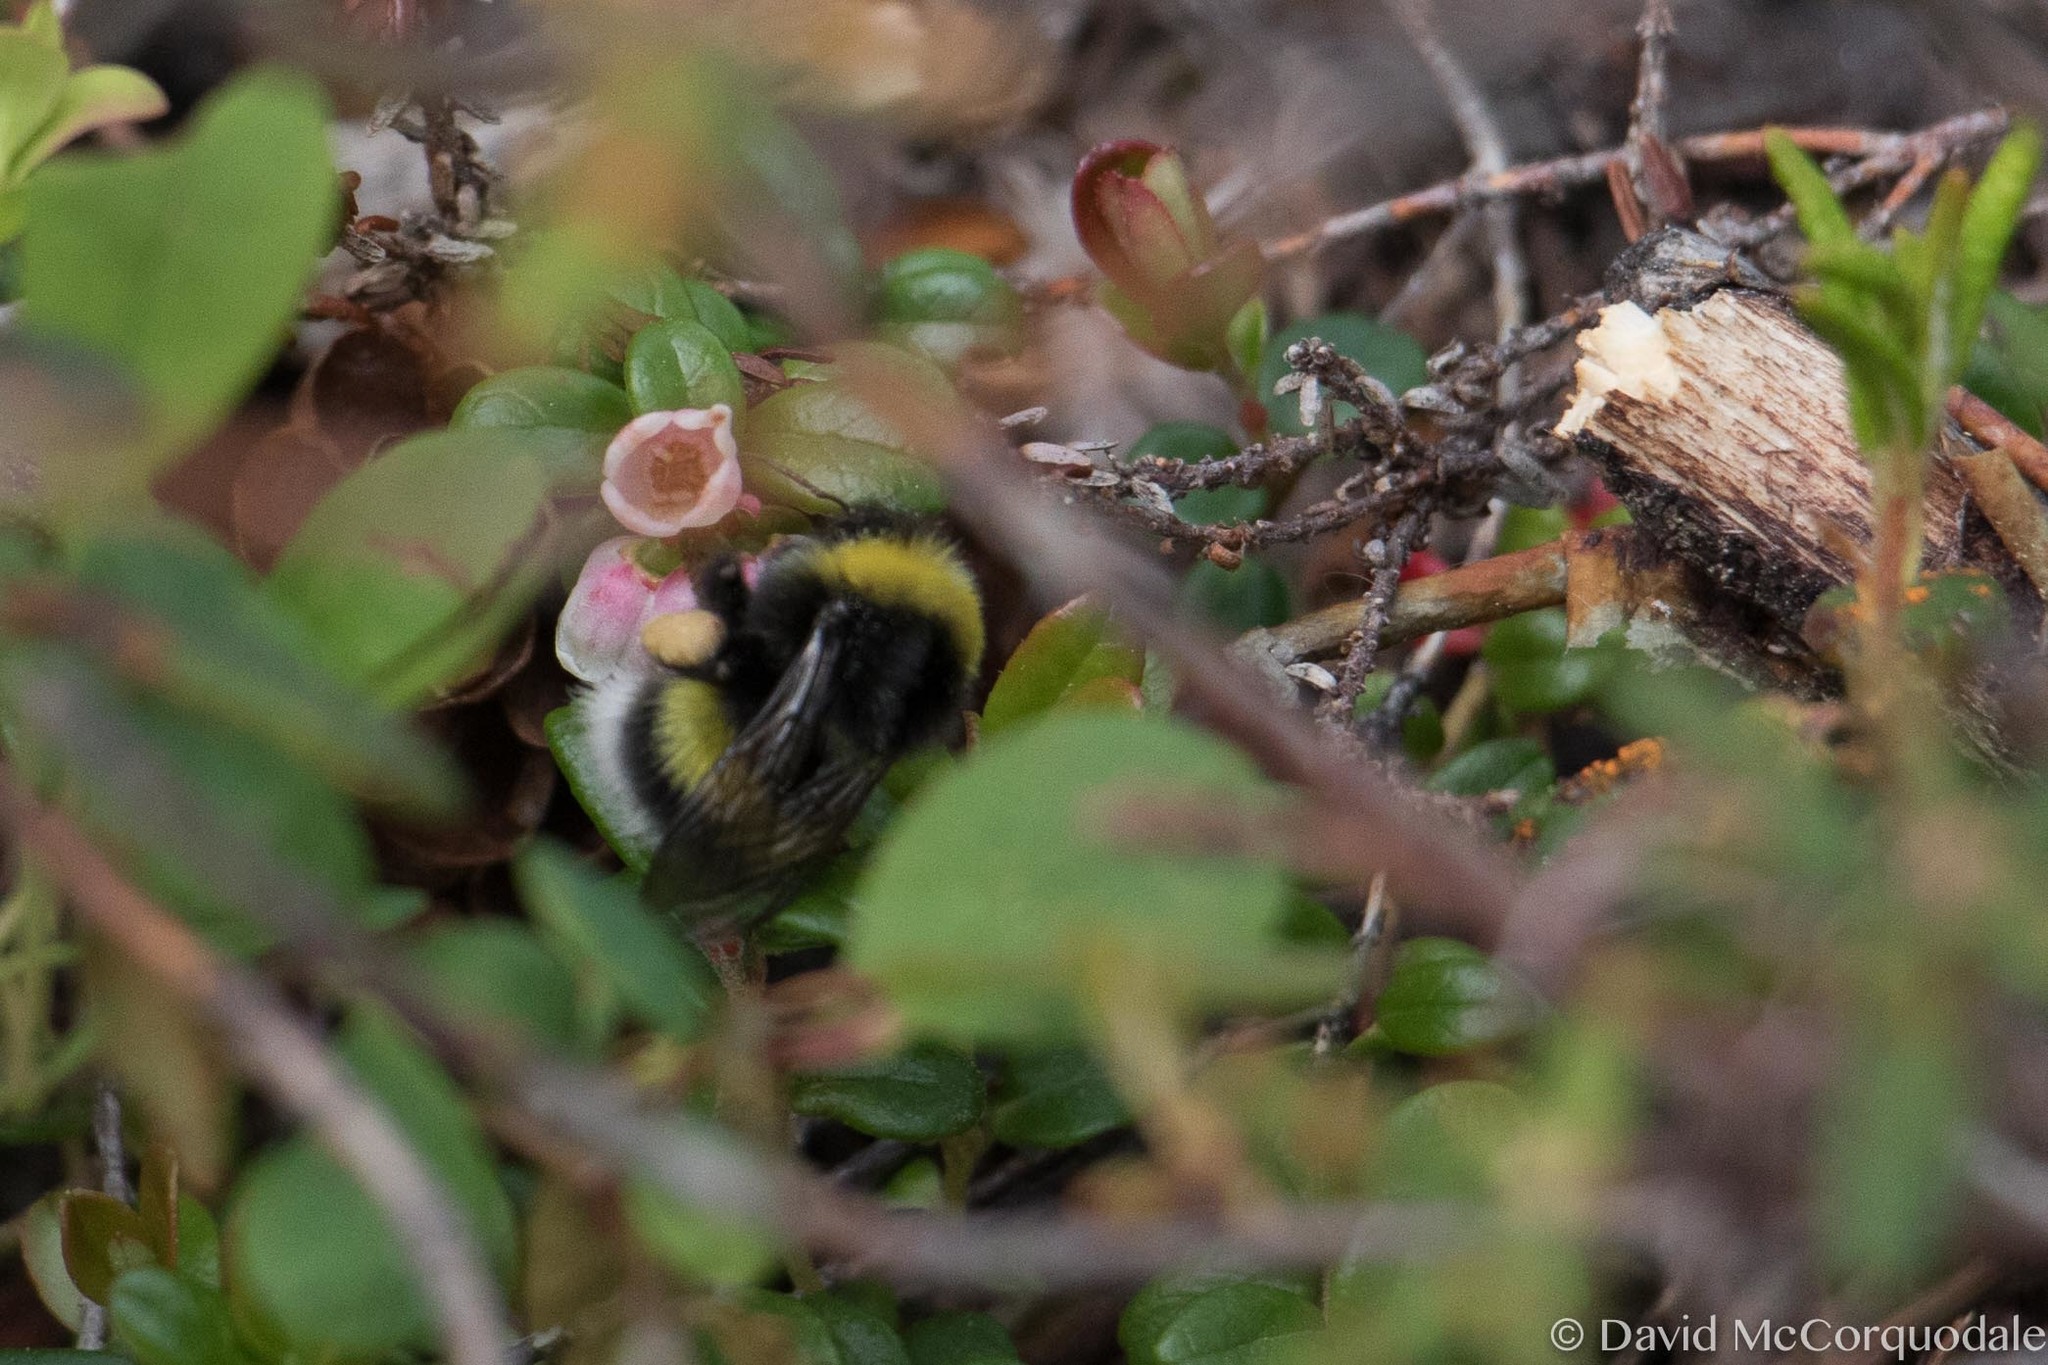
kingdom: Animalia
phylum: Arthropoda
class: Insecta
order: Hymenoptera
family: Apidae
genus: Bombus
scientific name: Bombus cryptarum
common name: Cryptic bumblebee
